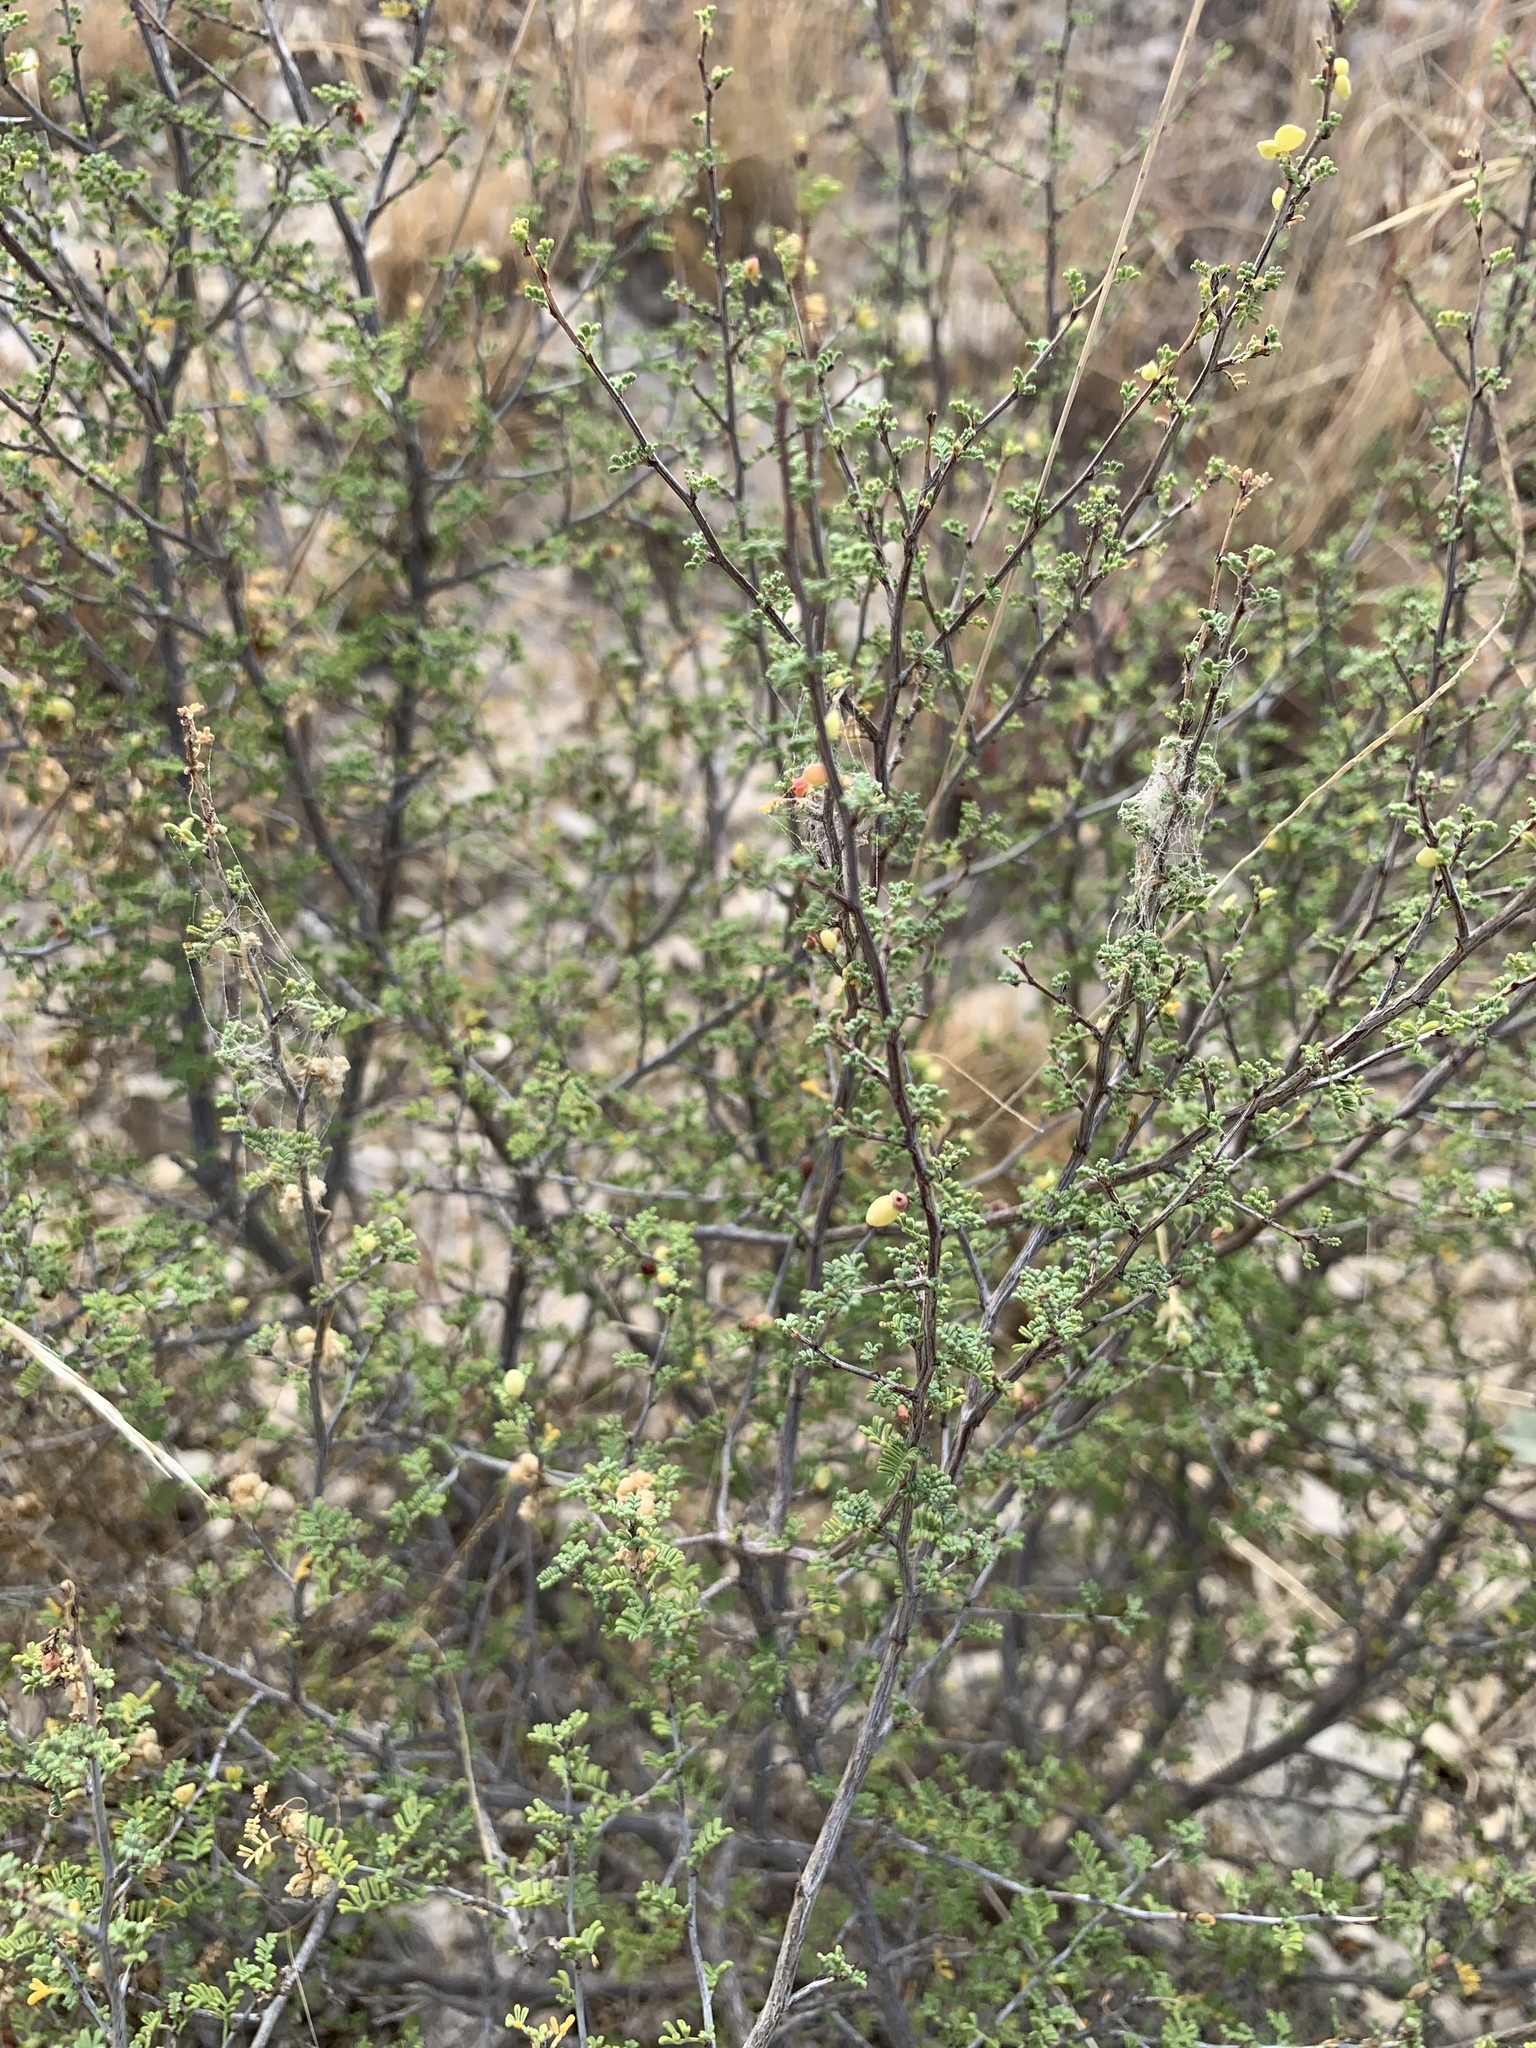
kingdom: Plantae
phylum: Tracheophyta
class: Magnoliopsida
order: Fabales
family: Fabaceae
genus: Dalea
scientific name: Dalea formosa
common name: Feather-plume dalea
